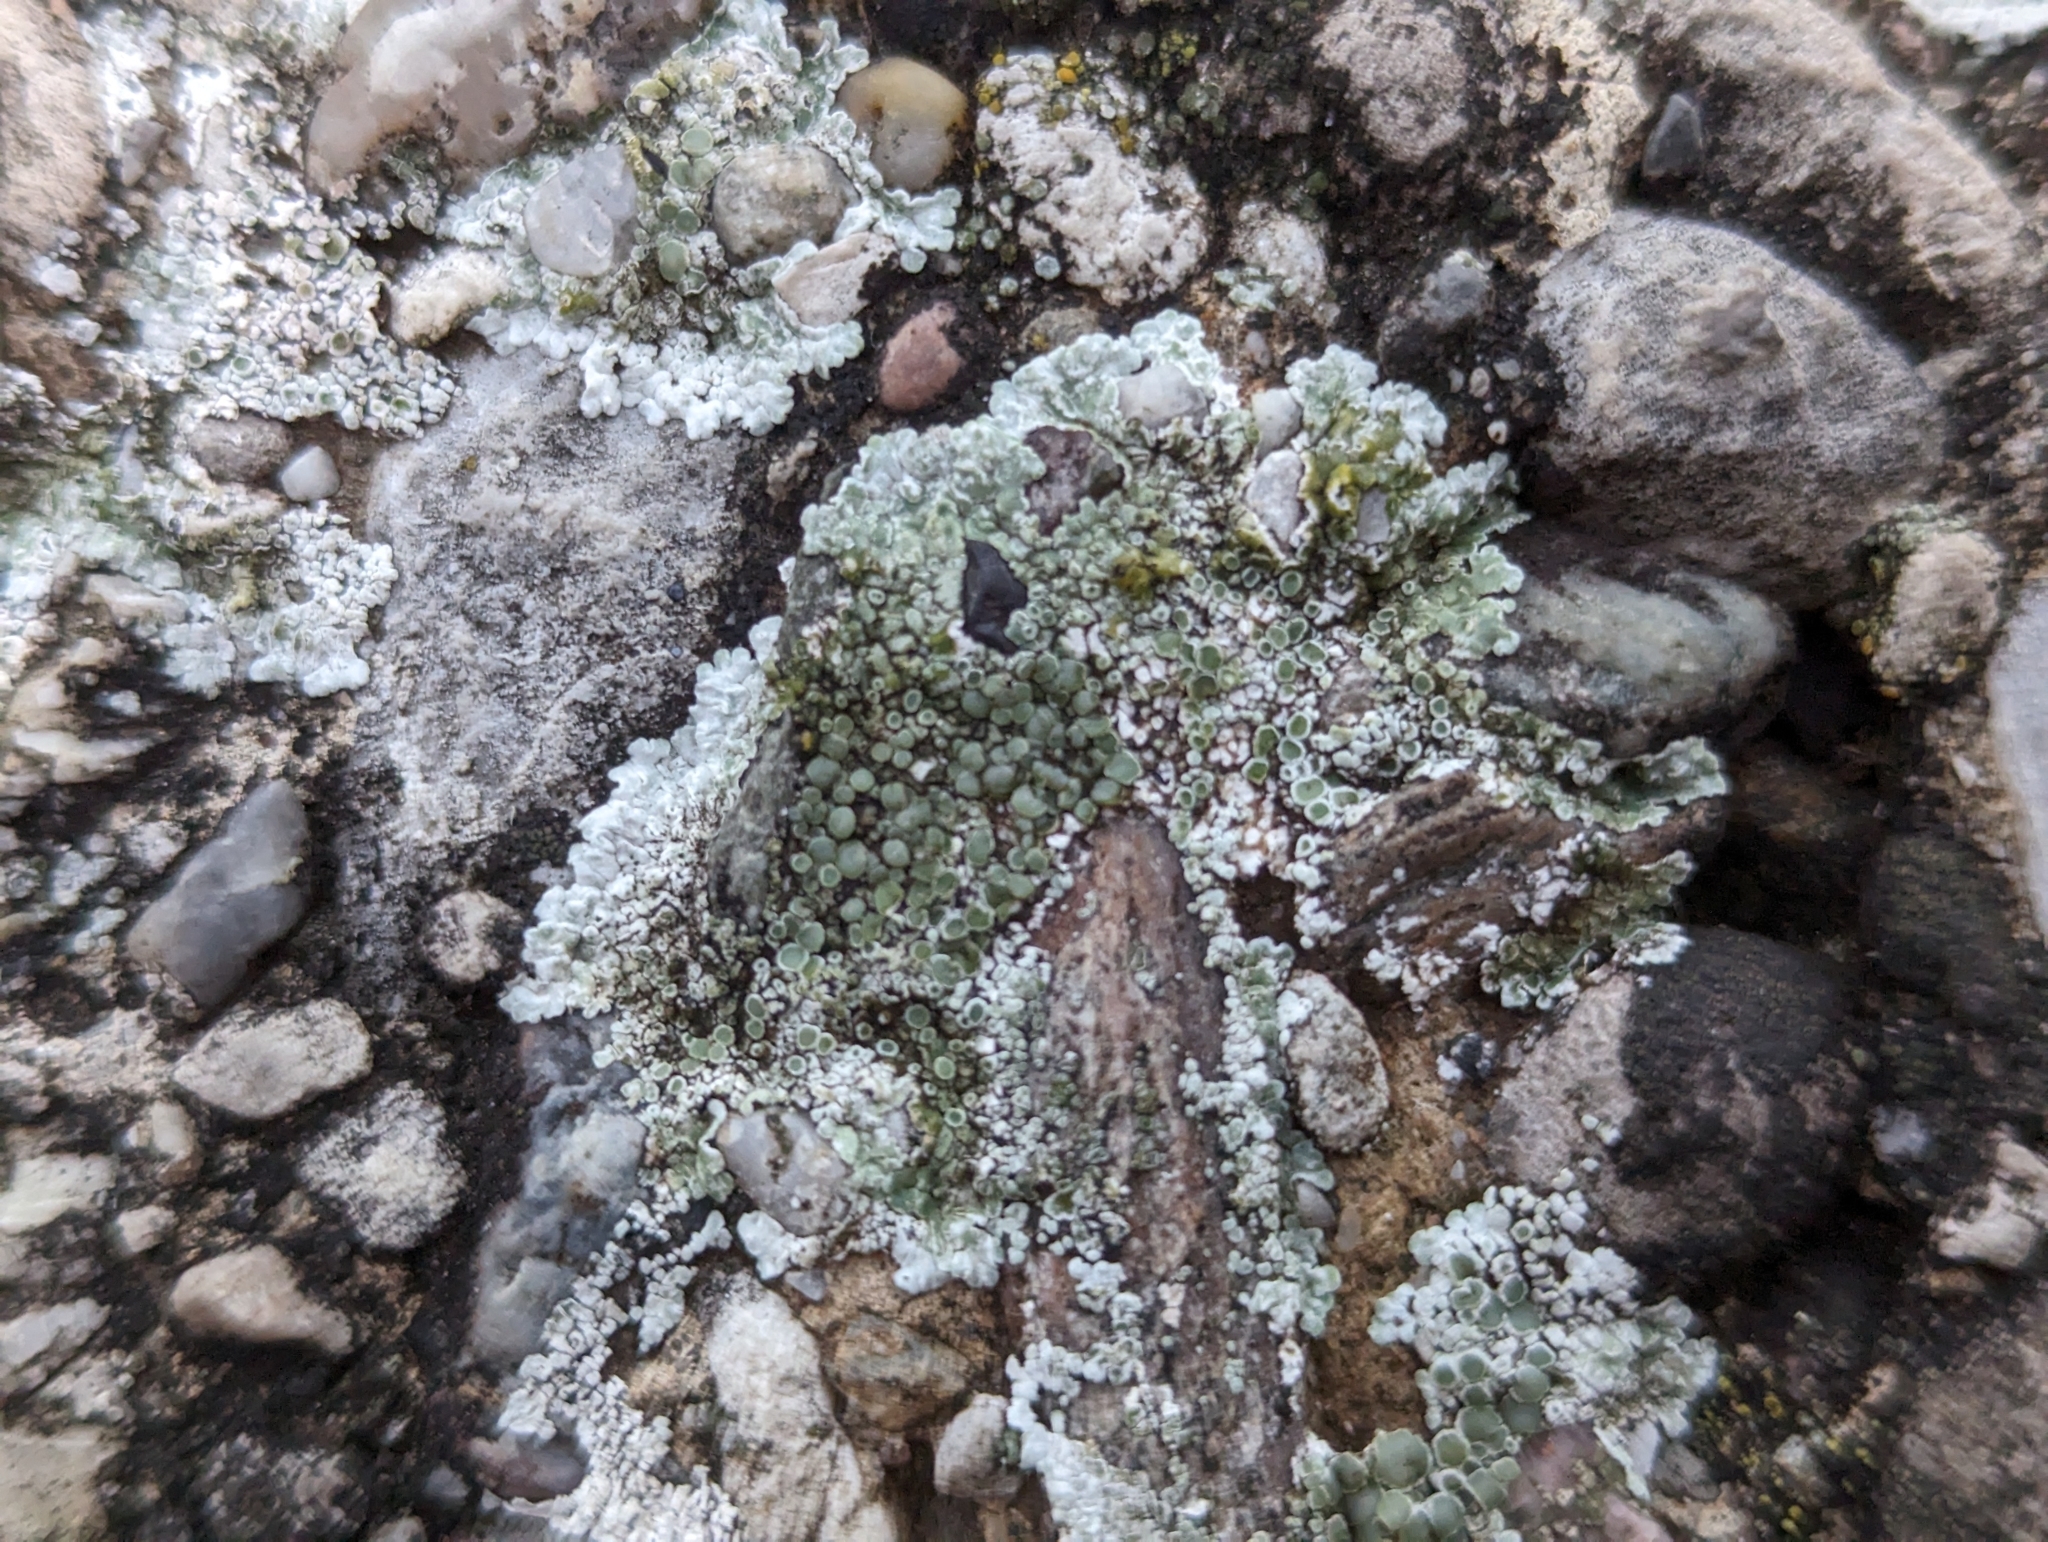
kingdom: Fungi
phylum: Ascomycota
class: Lecanoromycetes
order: Lecanorales
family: Lecanoraceae
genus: Protoparmeliopsis
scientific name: Protoparmeliopsis muralis
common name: Stonewall rim lichen
